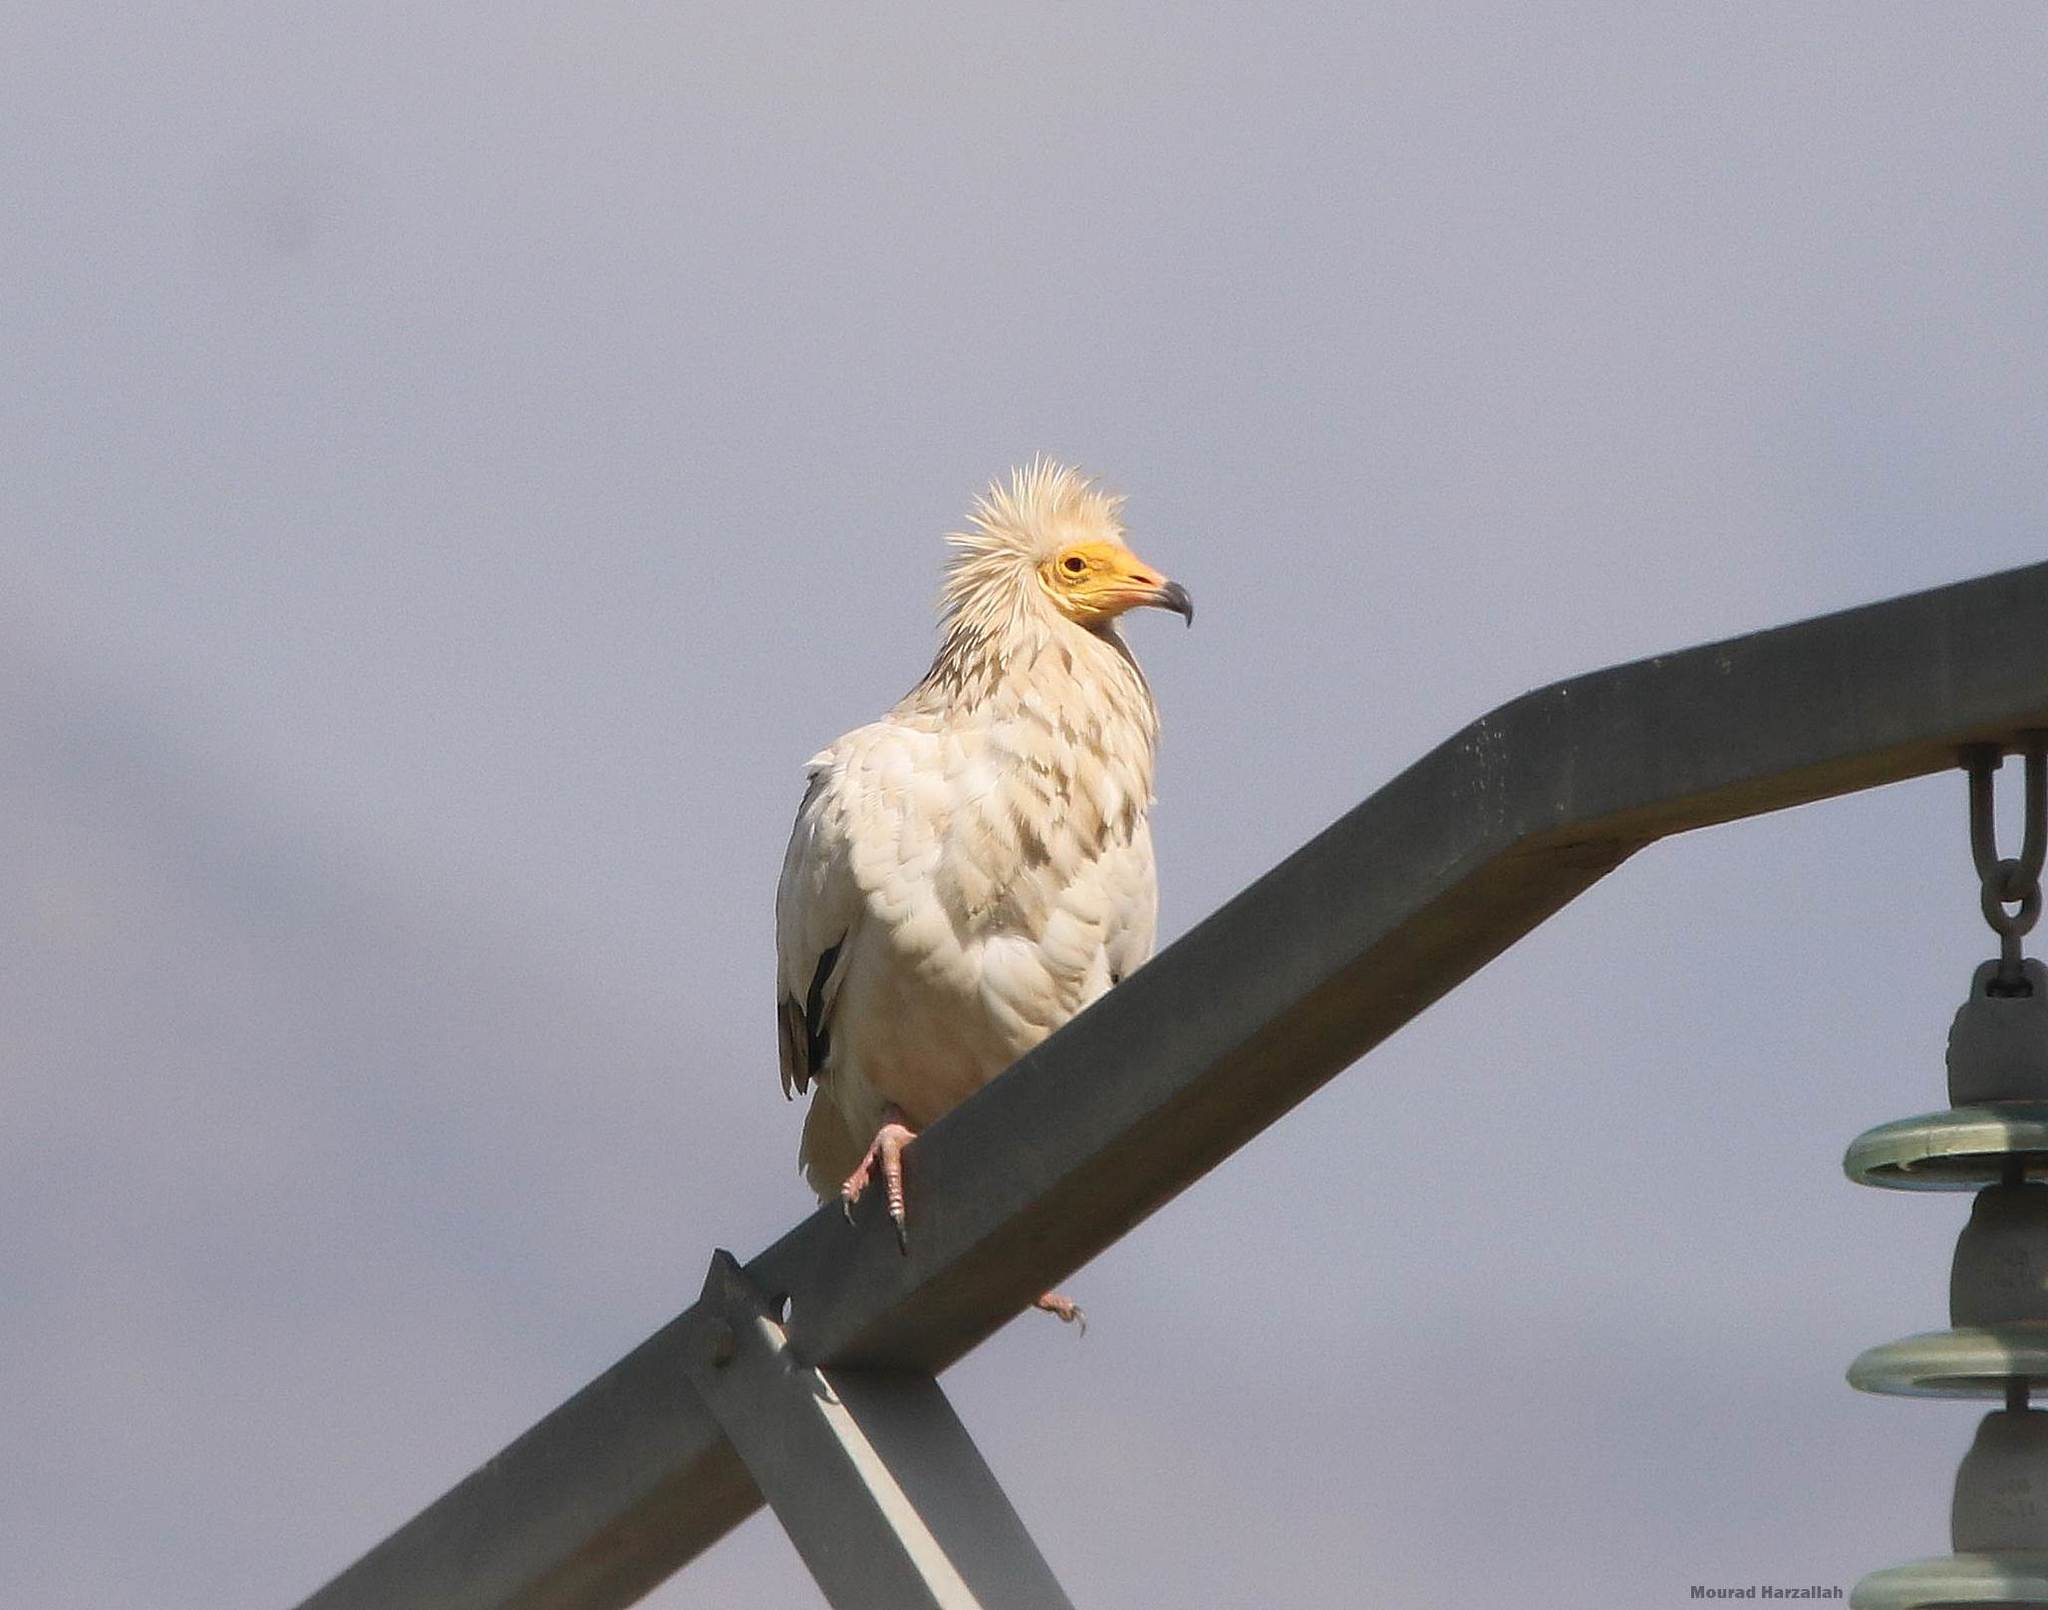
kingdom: Animalia
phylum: Chordata
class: Aves
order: Accipitriformes
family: Accipitridae
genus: Neophron
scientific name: Neophron percnopterus
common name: Egyptian vulture
